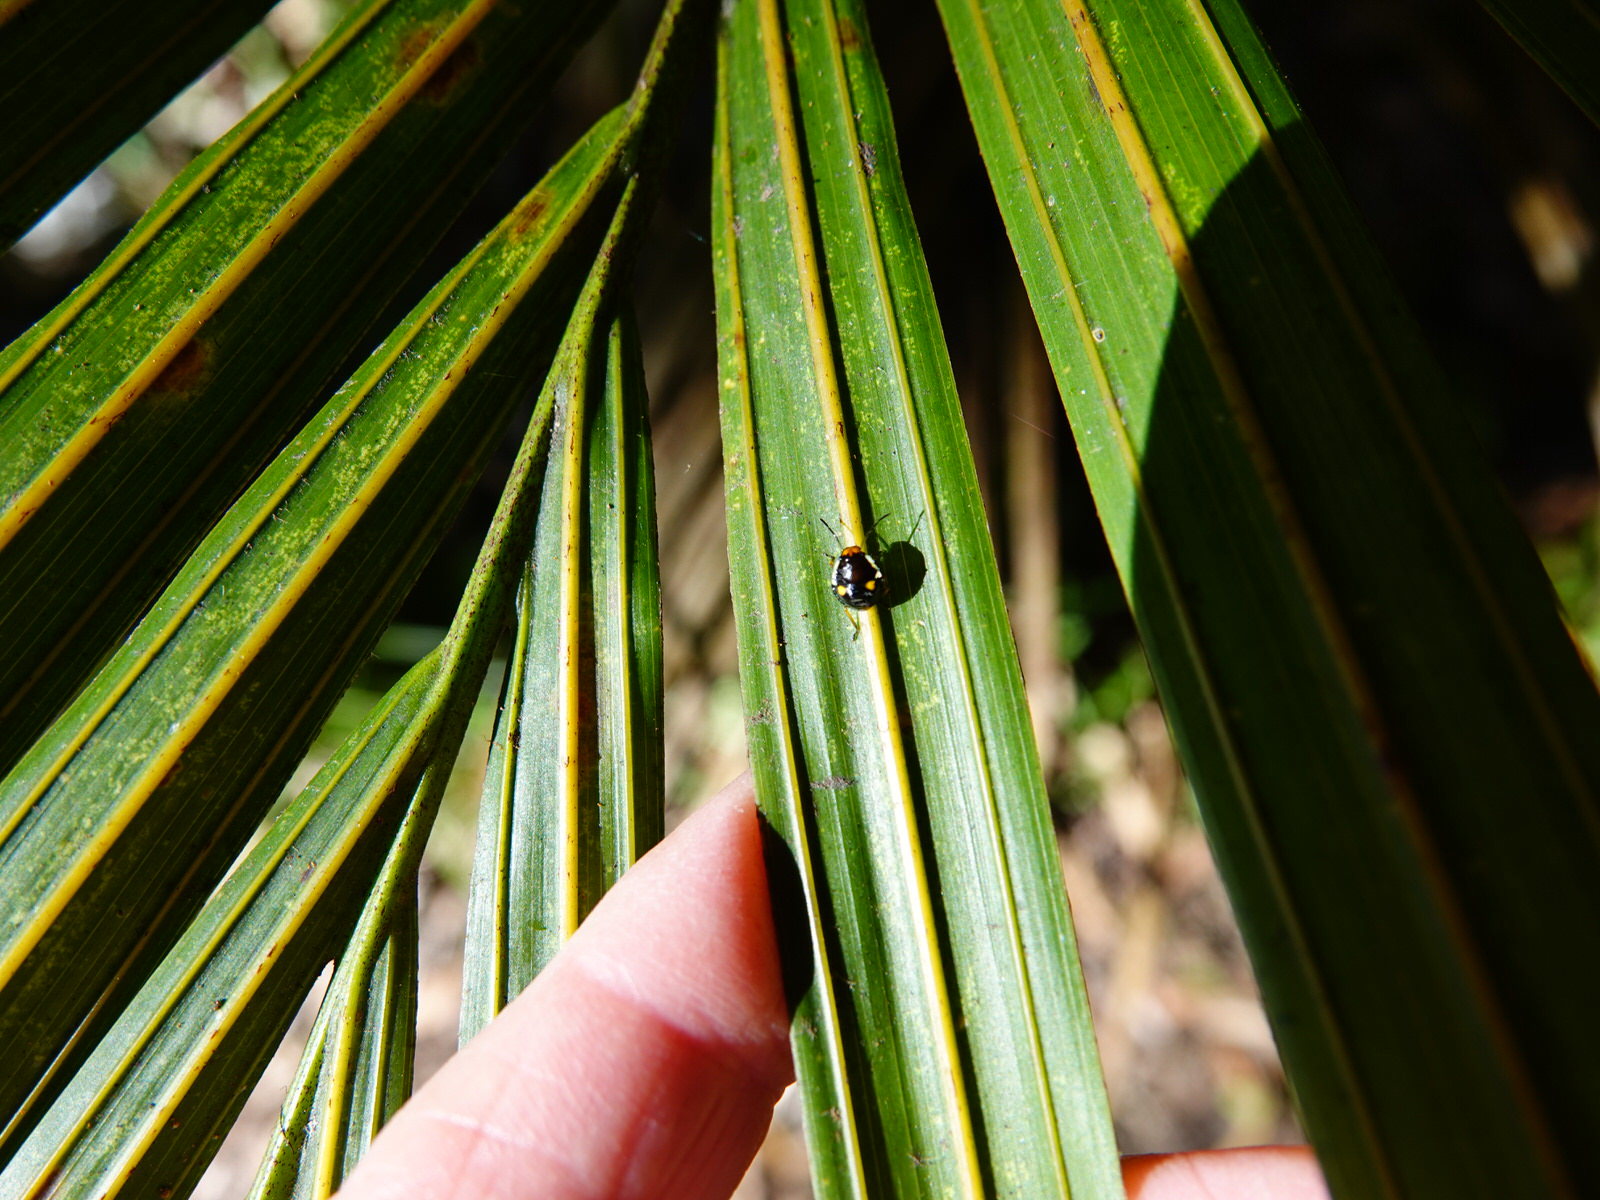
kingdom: Animalia
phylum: Arthropoda
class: Insecta
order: Hemiptera
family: Pentatomidae
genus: Monteithiella
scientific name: Monteithiella
